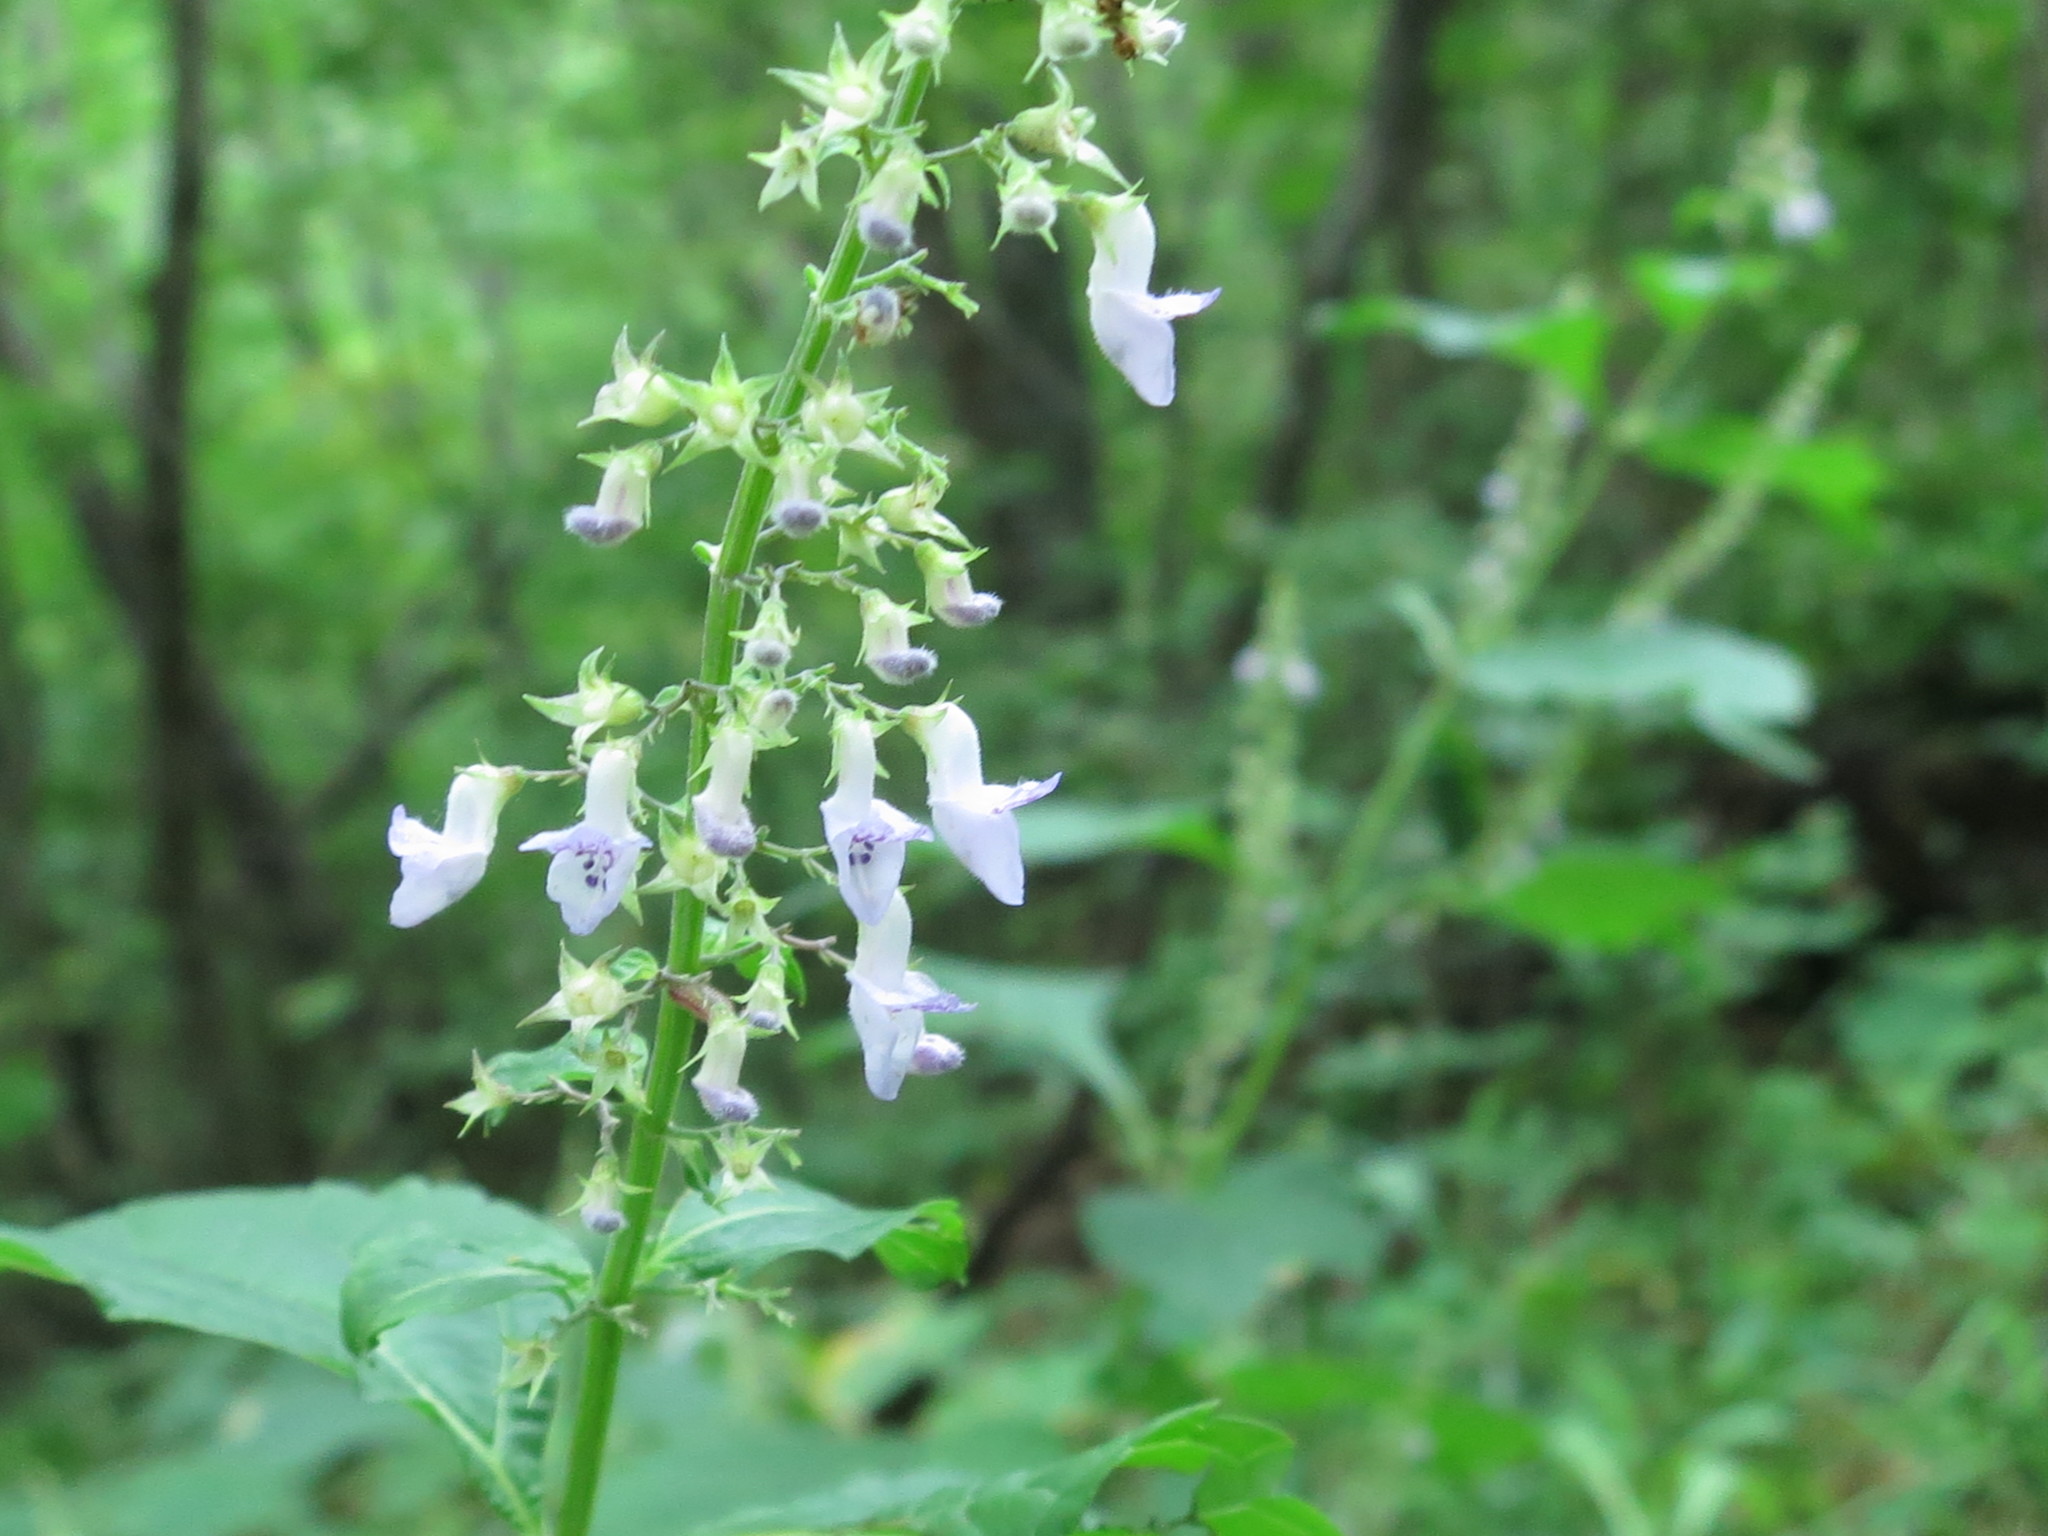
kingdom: Plantae
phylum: Tracheophyta
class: Magnoliopsida
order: Lamiales
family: Lamiaceae
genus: Isodon
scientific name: Isodon excisus
